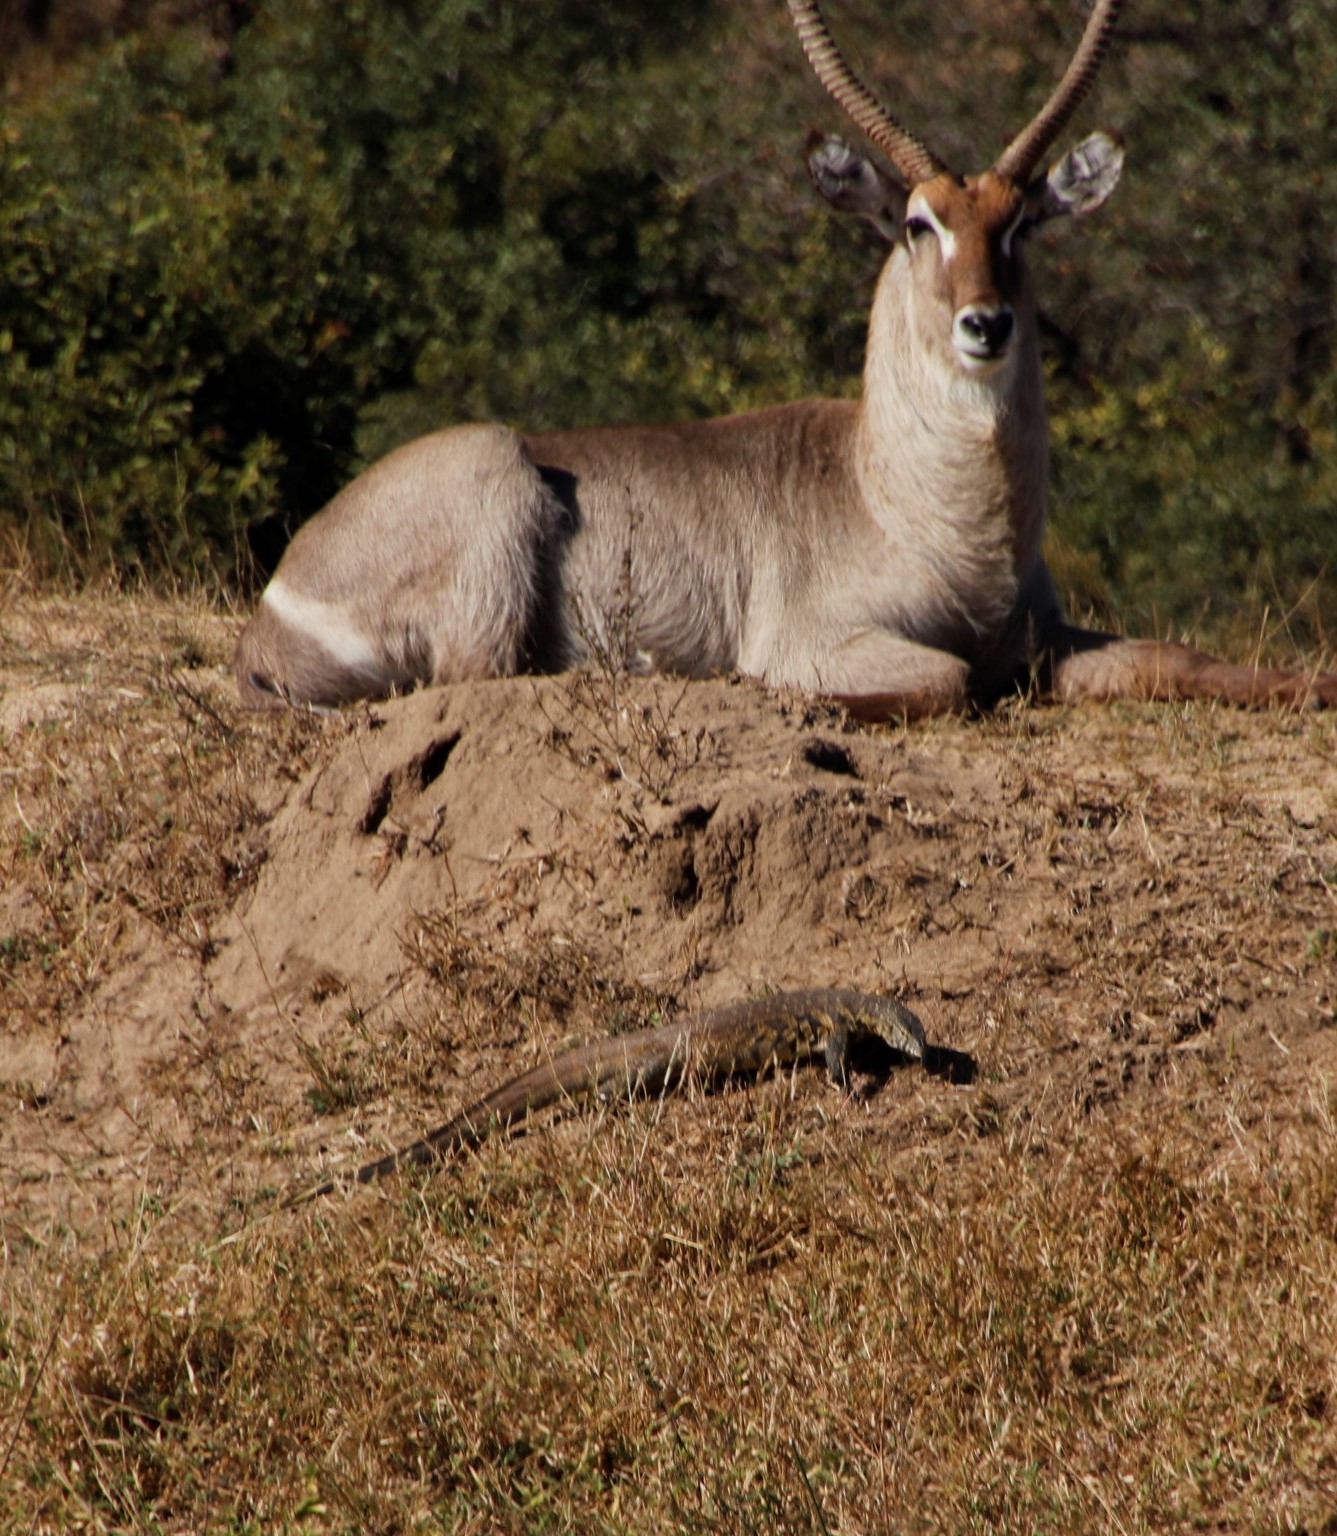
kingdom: Animalia
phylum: Chordata
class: Squamata
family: Varanidae
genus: Varanus
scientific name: Varanus niloticus
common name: Nile monitor
